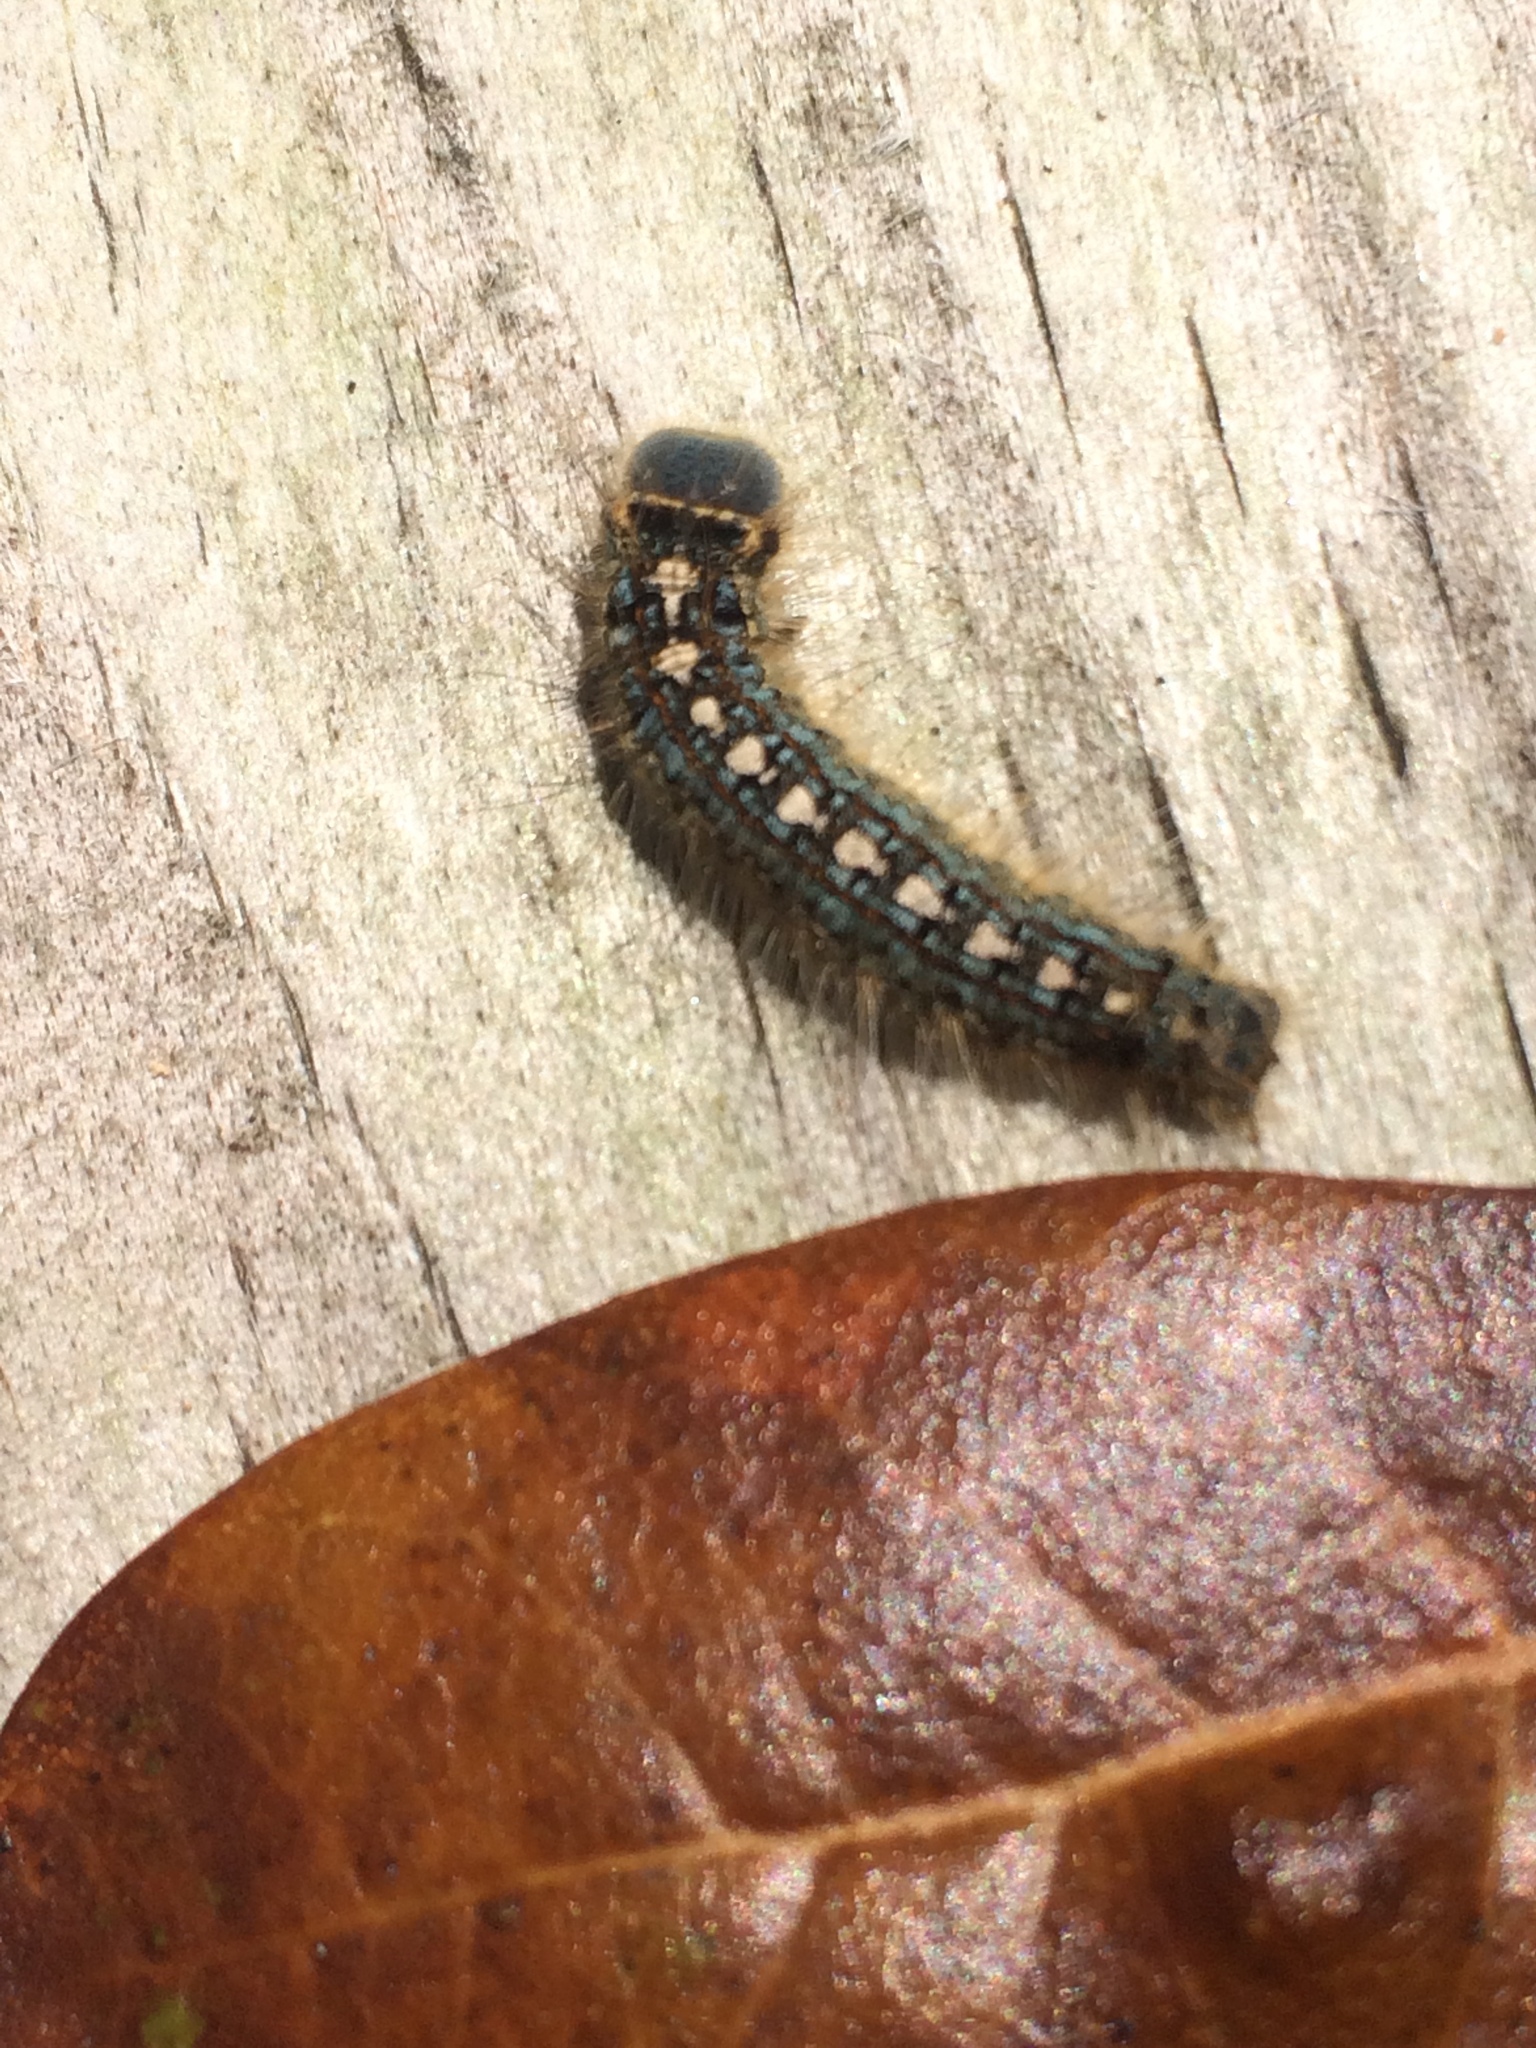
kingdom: Animalia
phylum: Arthropoda
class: Insecta
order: Lepidoptera
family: Lasiocampidae
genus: Malacosoma
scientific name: Malacosoma disstria
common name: Forest tent caterpillar
